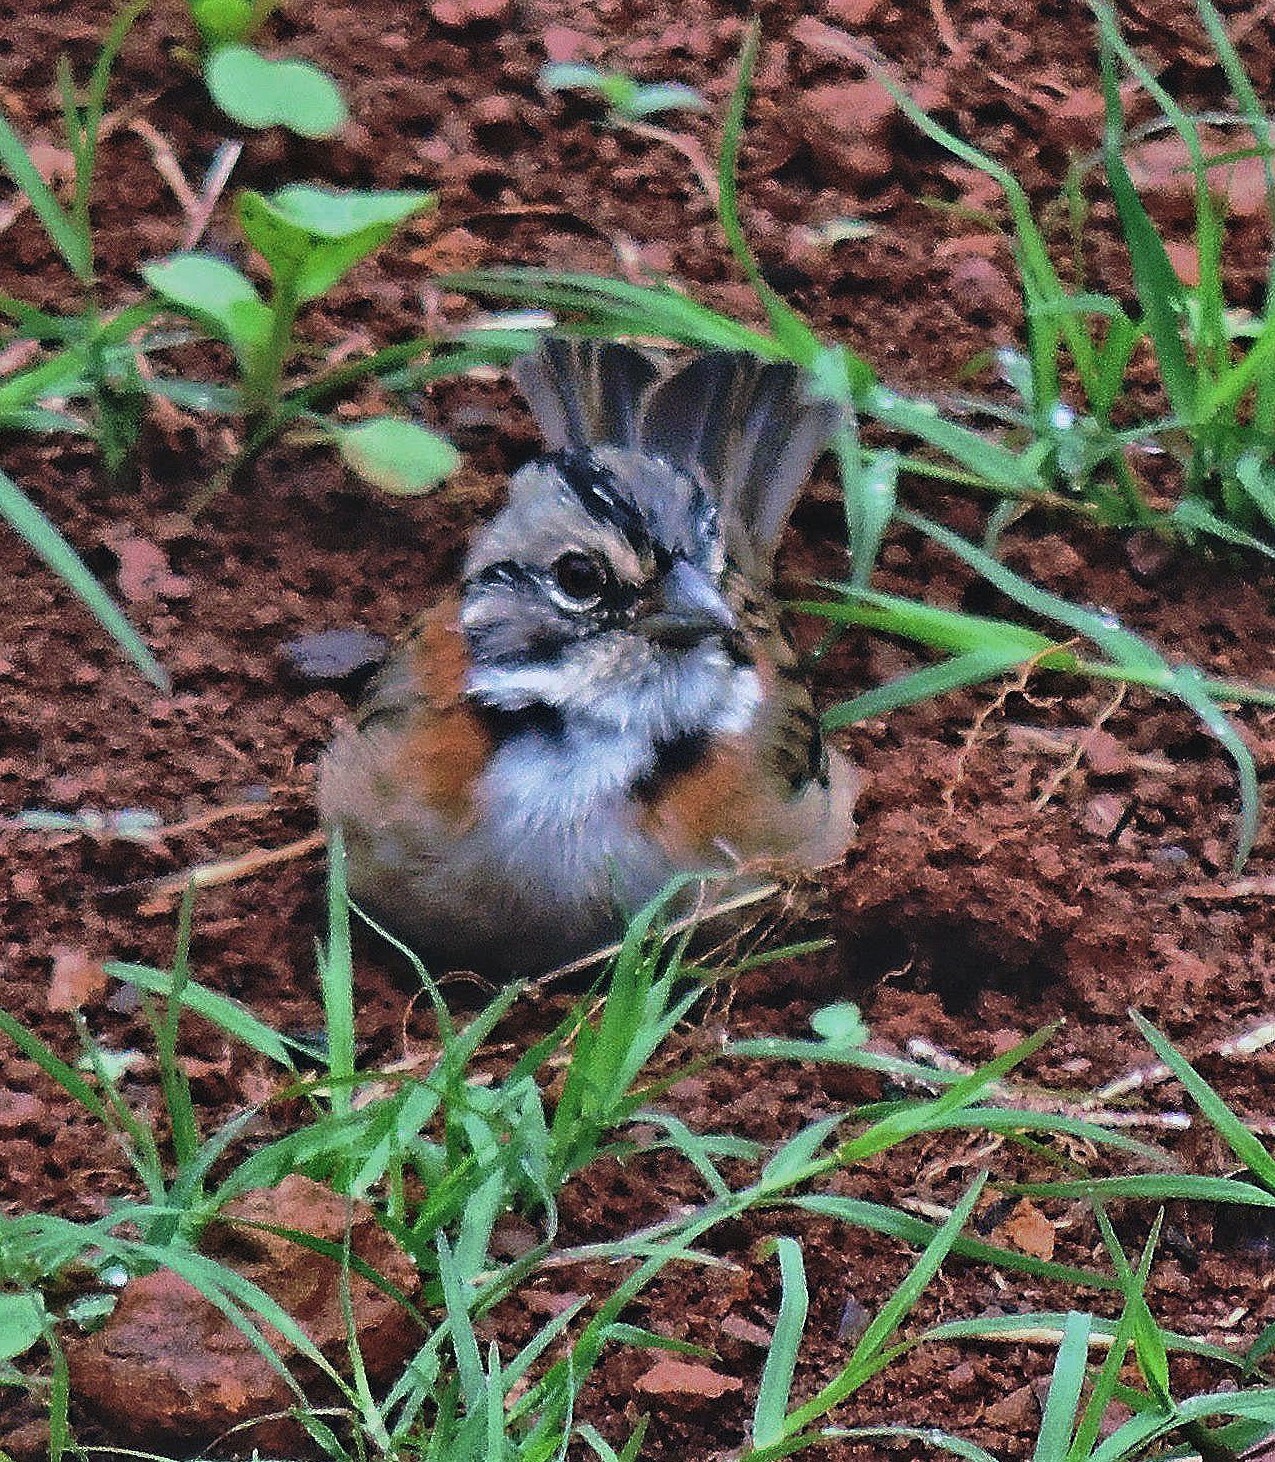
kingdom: Animalia
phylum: Chordata
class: Aves
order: Passeriformes
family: Passerellidae
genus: Zonotrichia
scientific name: Zonotrichia capensis
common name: Rufous-collared sparrow
